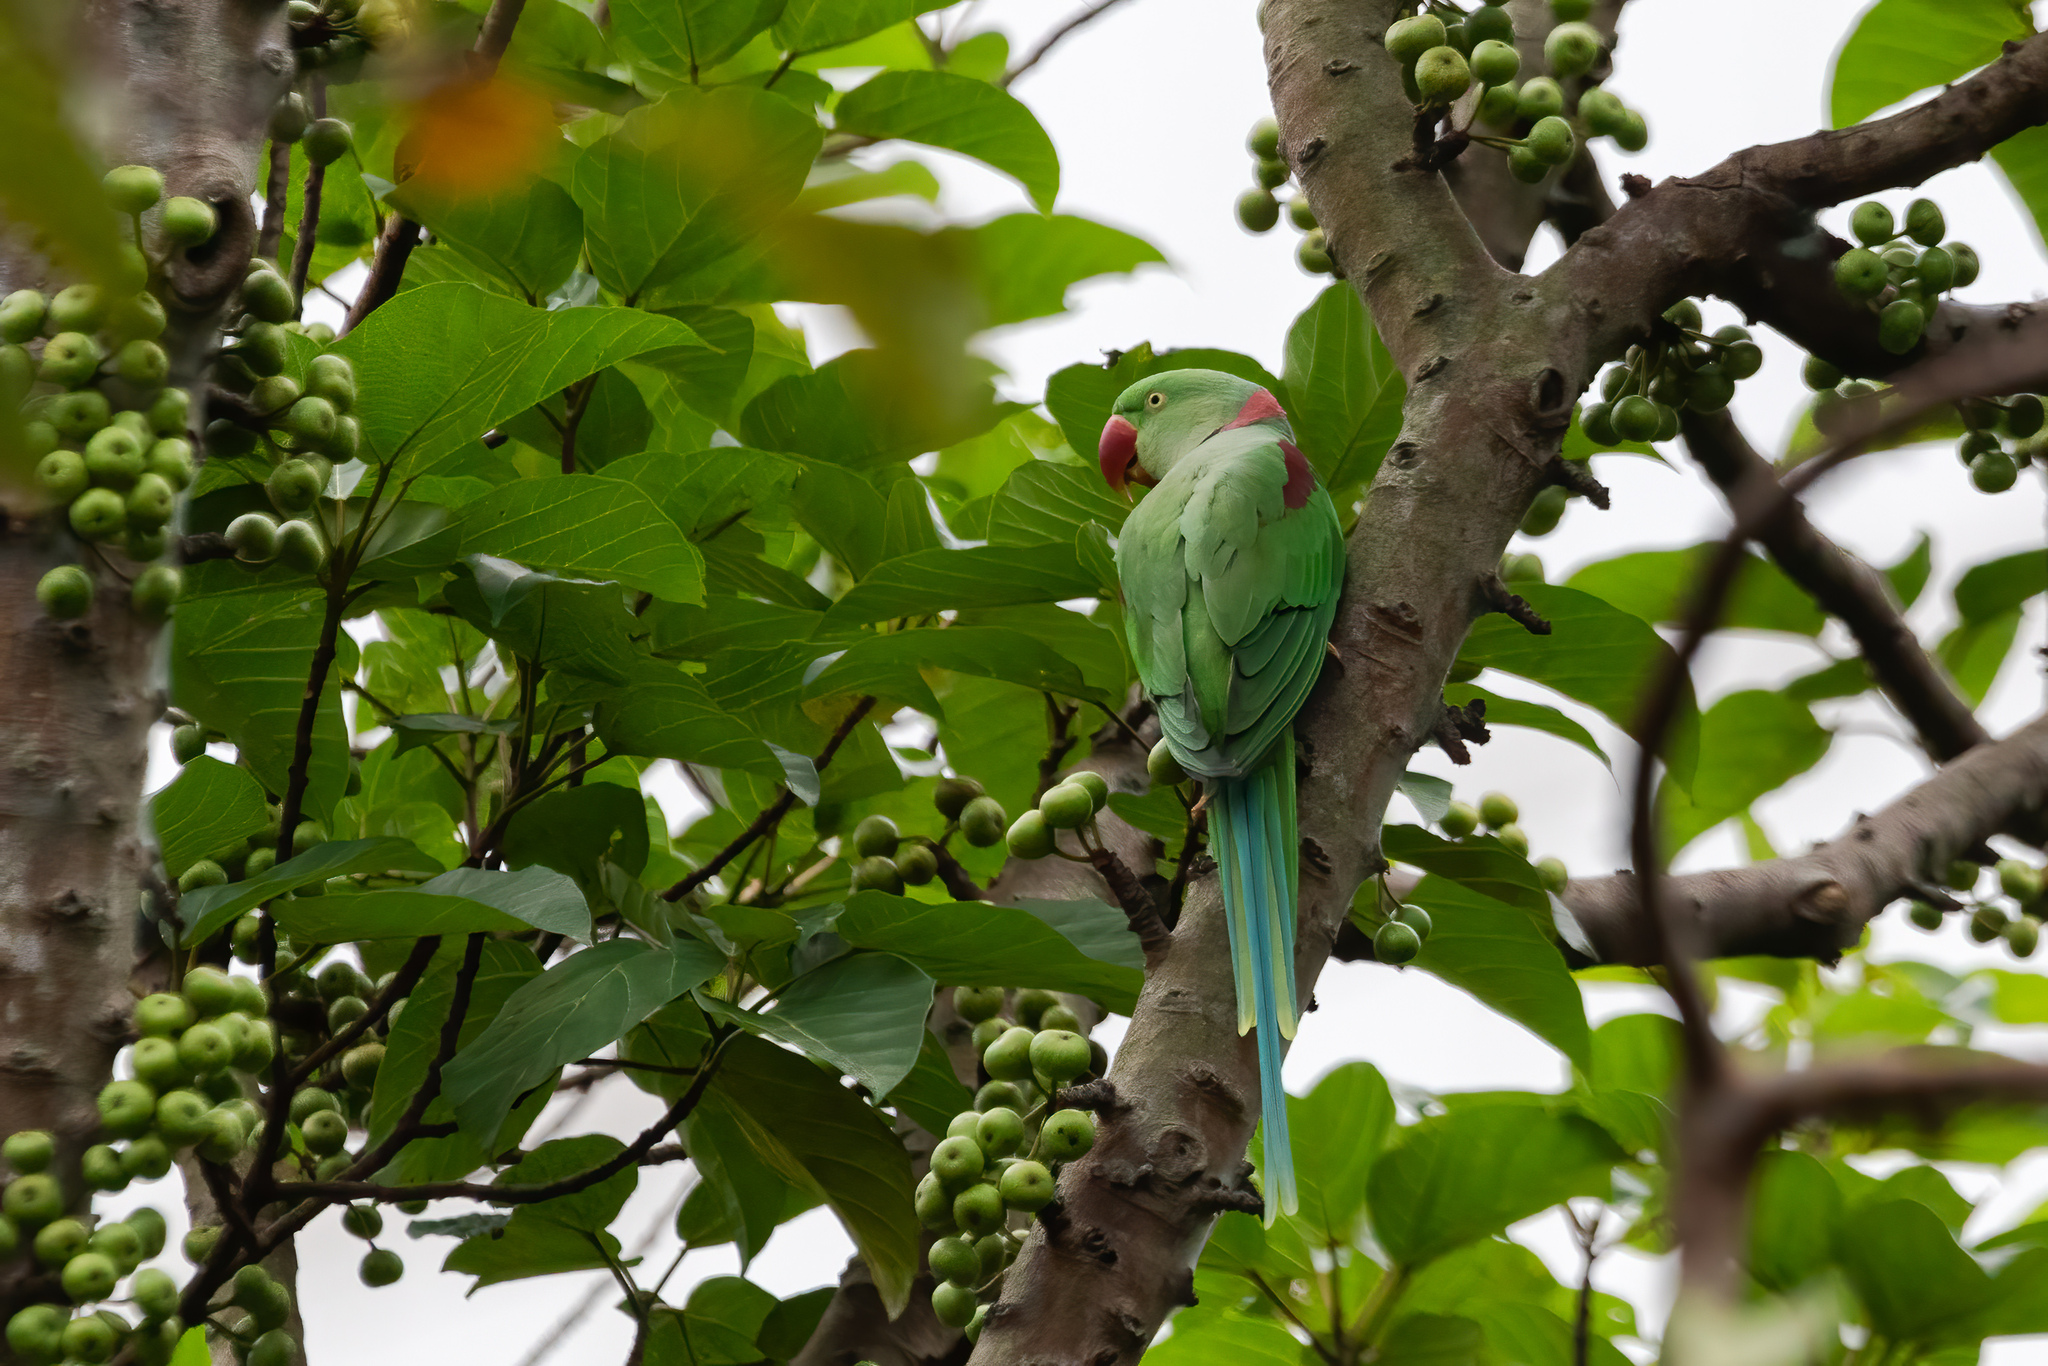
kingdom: Animalia
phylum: Chordata
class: Aves
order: Psittaciformes
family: Psittacidae
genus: Psittacula
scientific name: Psittacula eupatria
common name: Alexandrine parakeet
